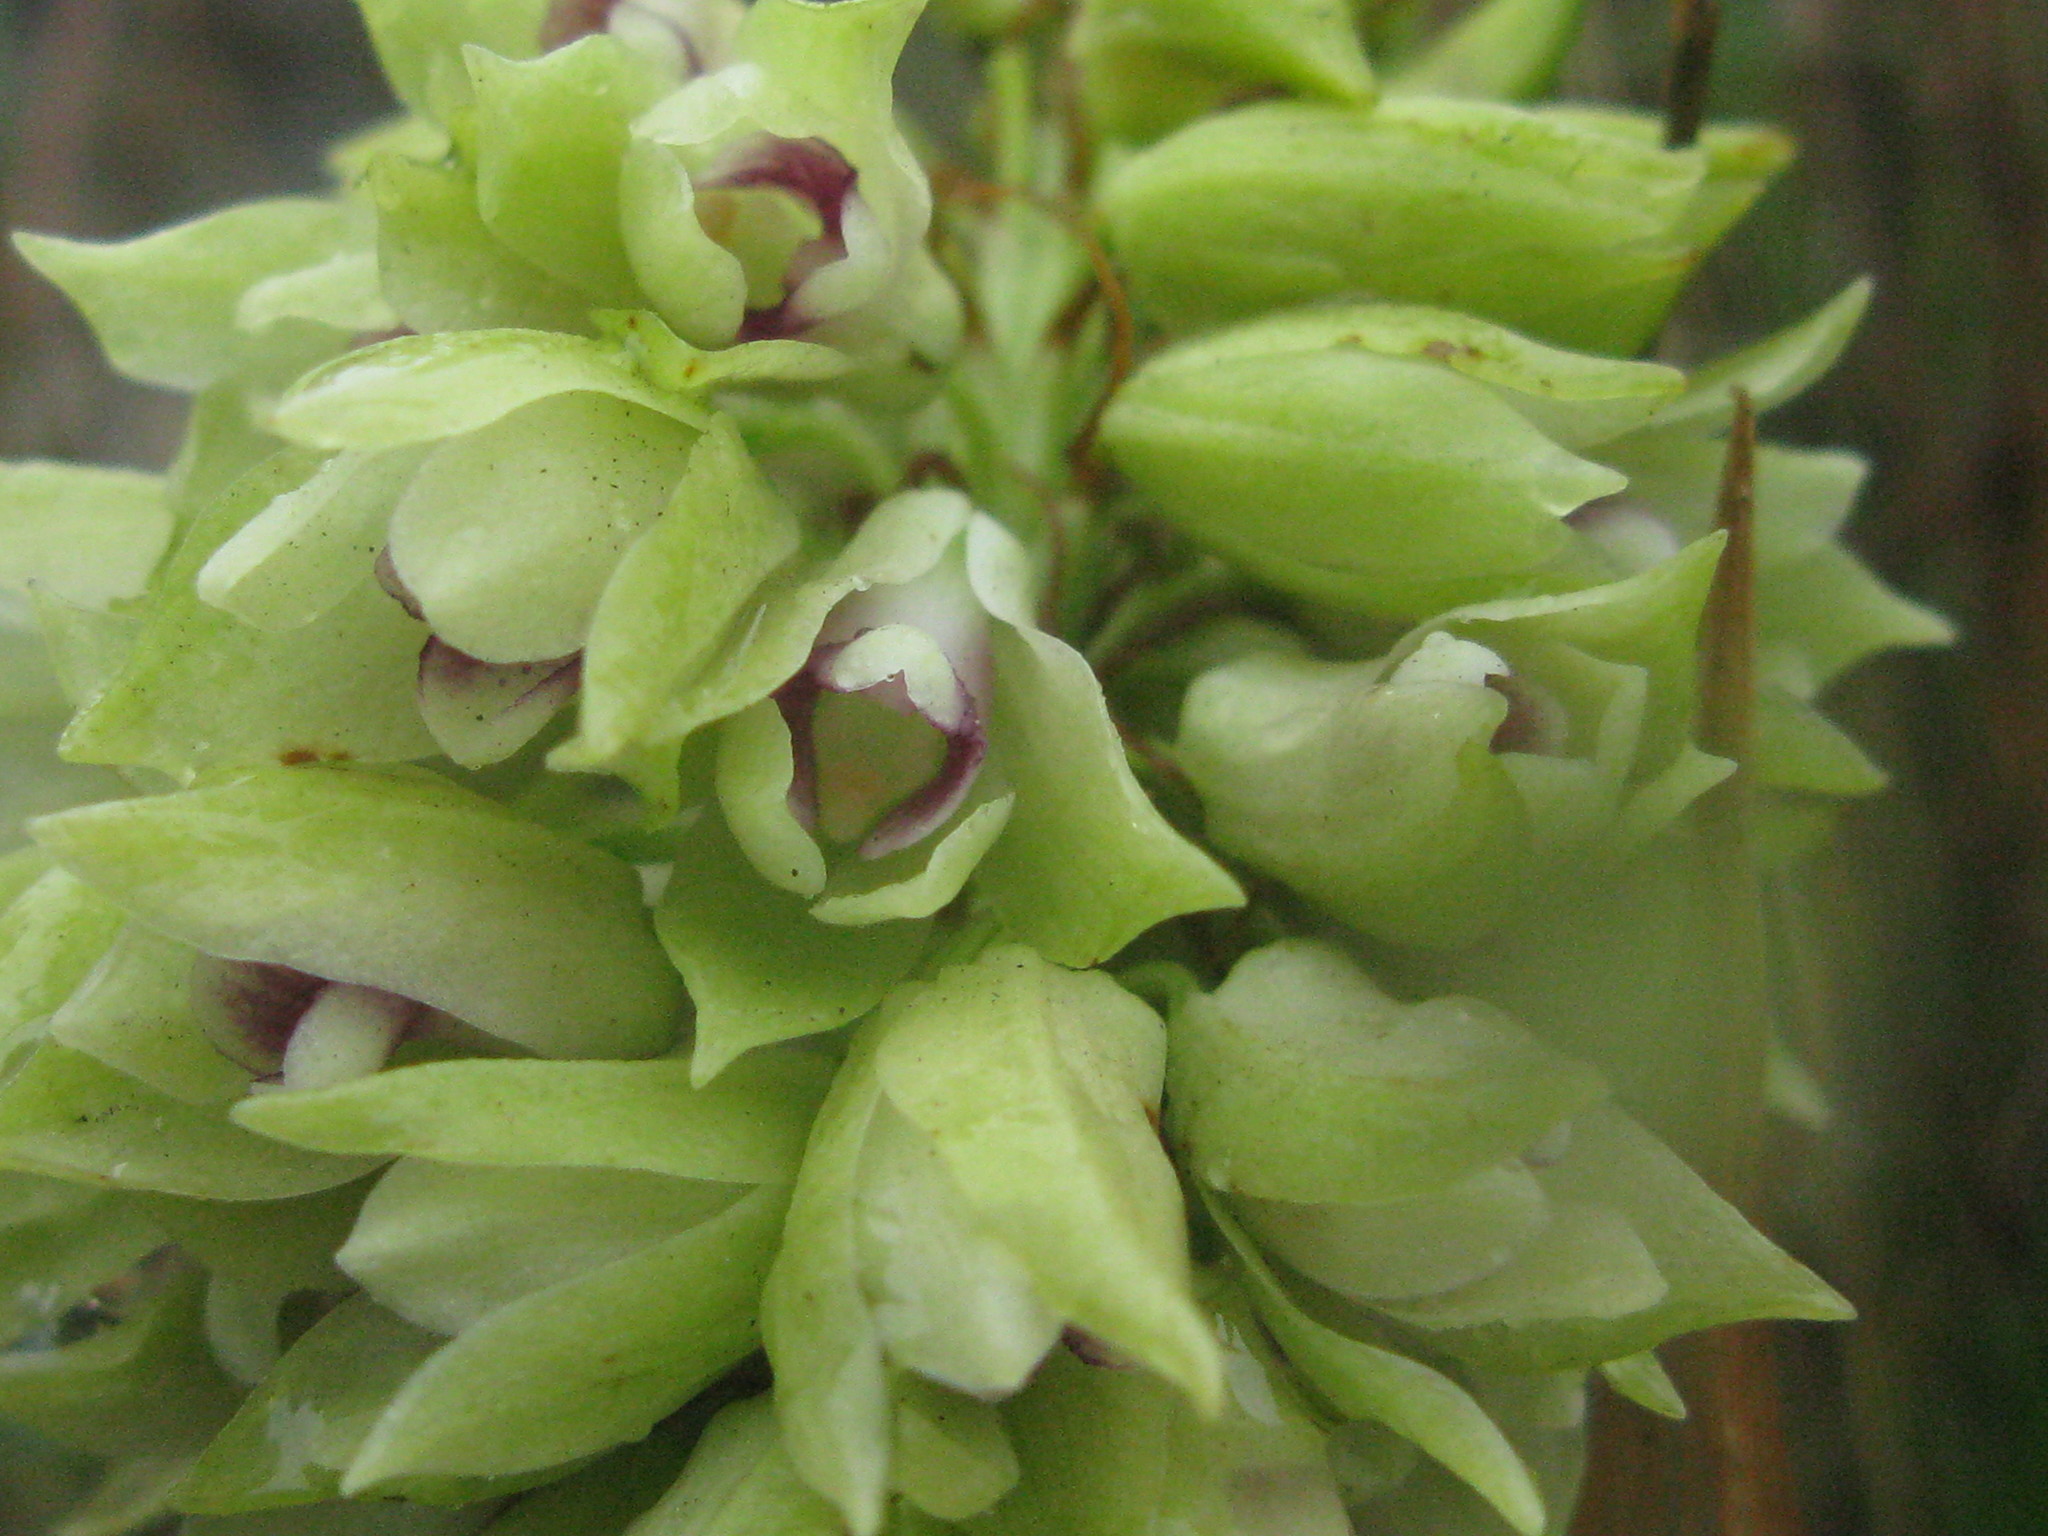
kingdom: Plantae
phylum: Tracheophyta
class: Liliopsida
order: Asparagales
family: Orchidaceae
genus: Eulophia
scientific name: Eulophia foliosa
